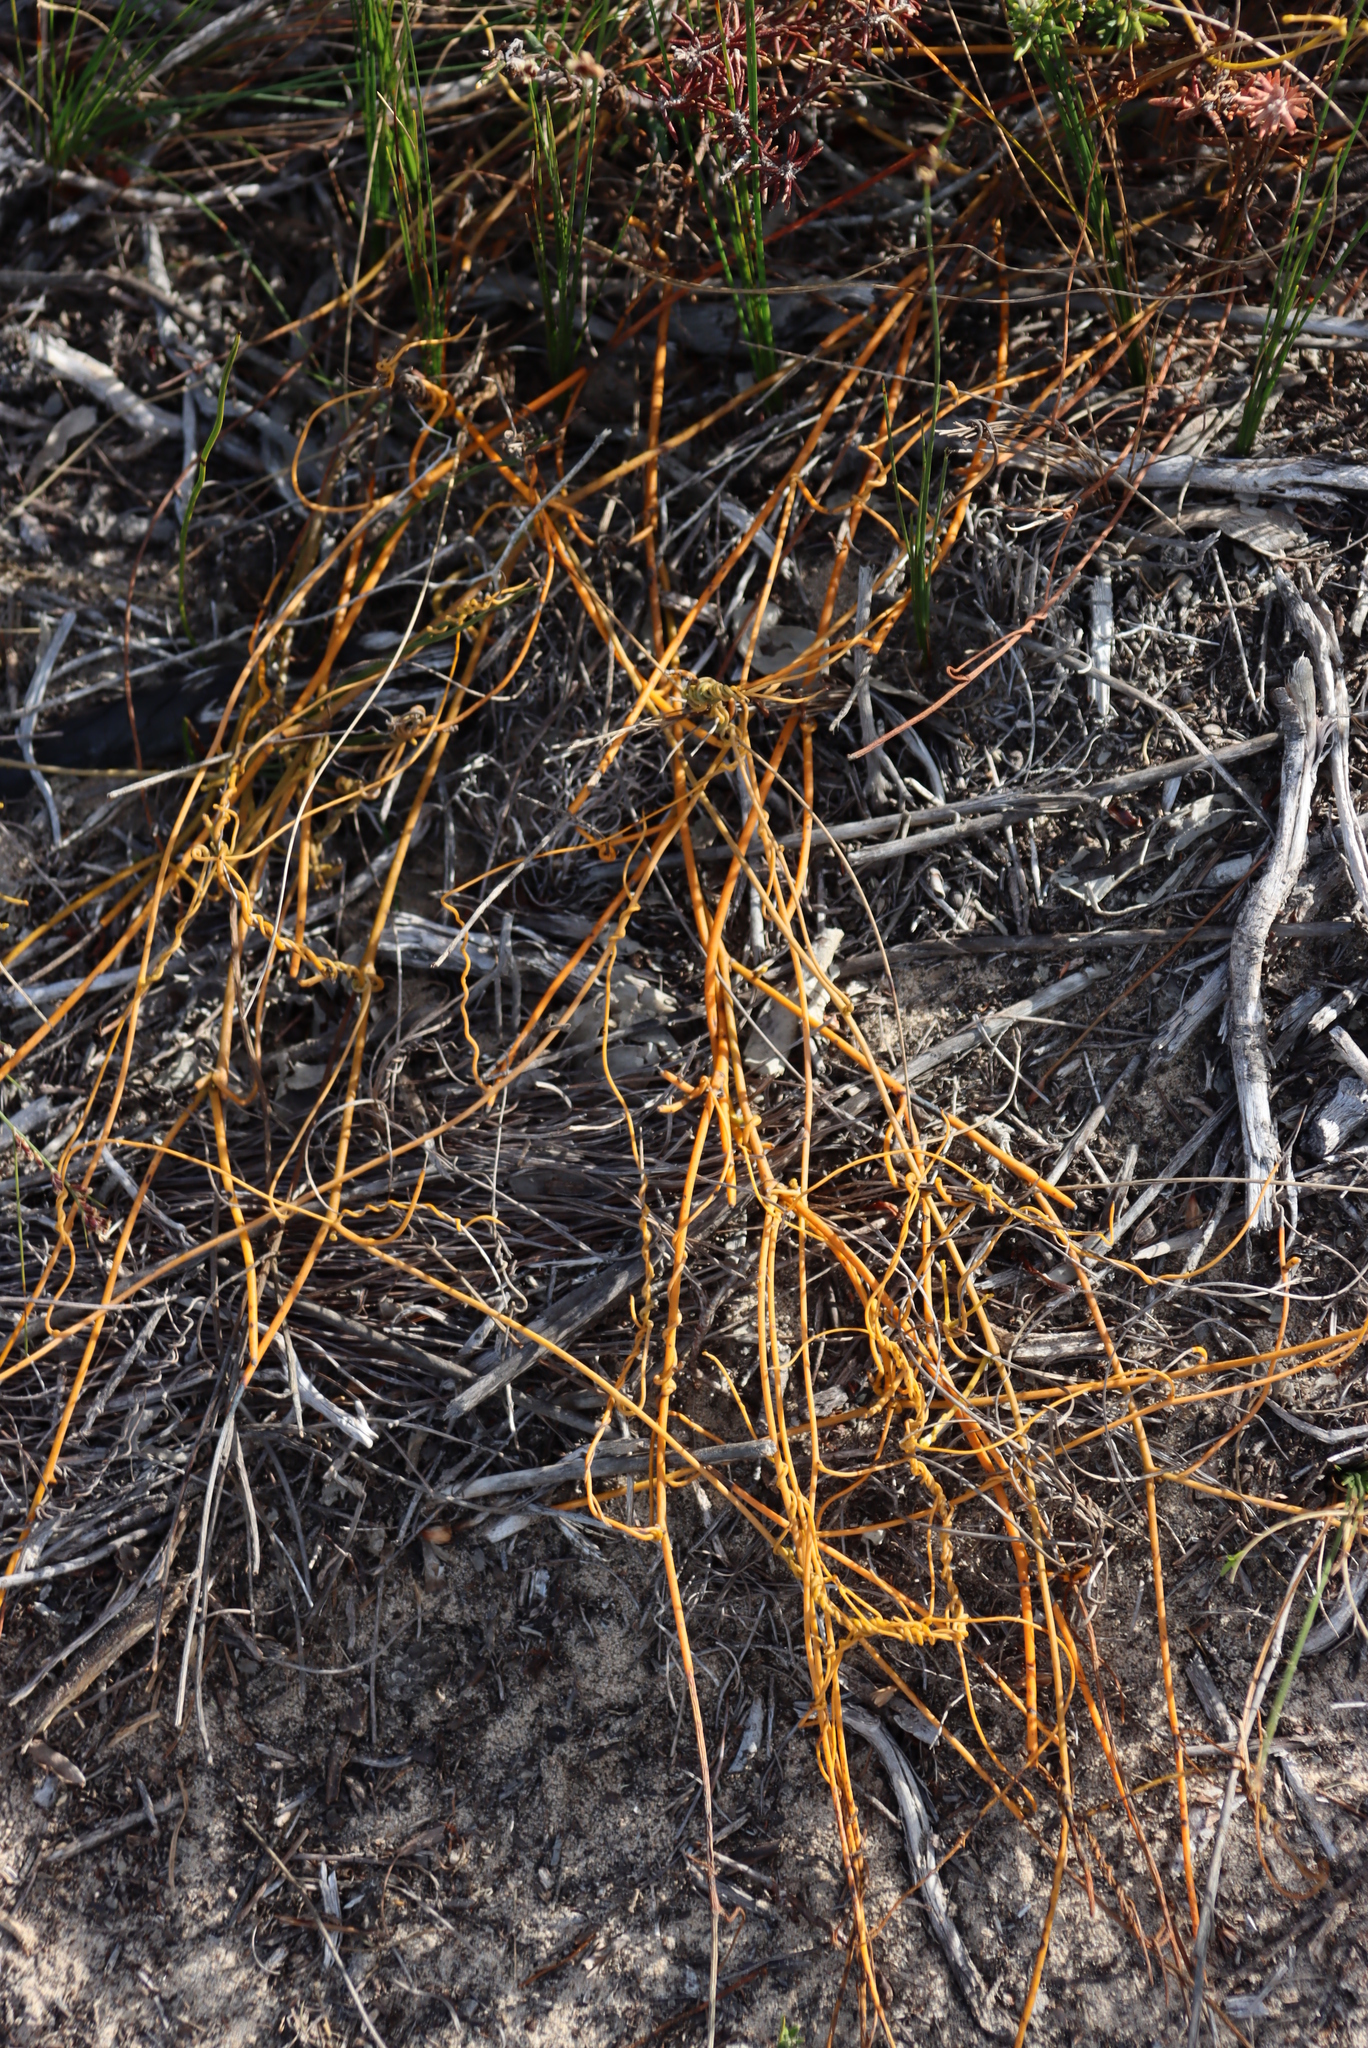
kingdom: Plantae
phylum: Tracheophyta
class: Magnoliopsida
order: Laurales
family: Lauraceae
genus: Cassytha
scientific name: Cassytha ciliolata
